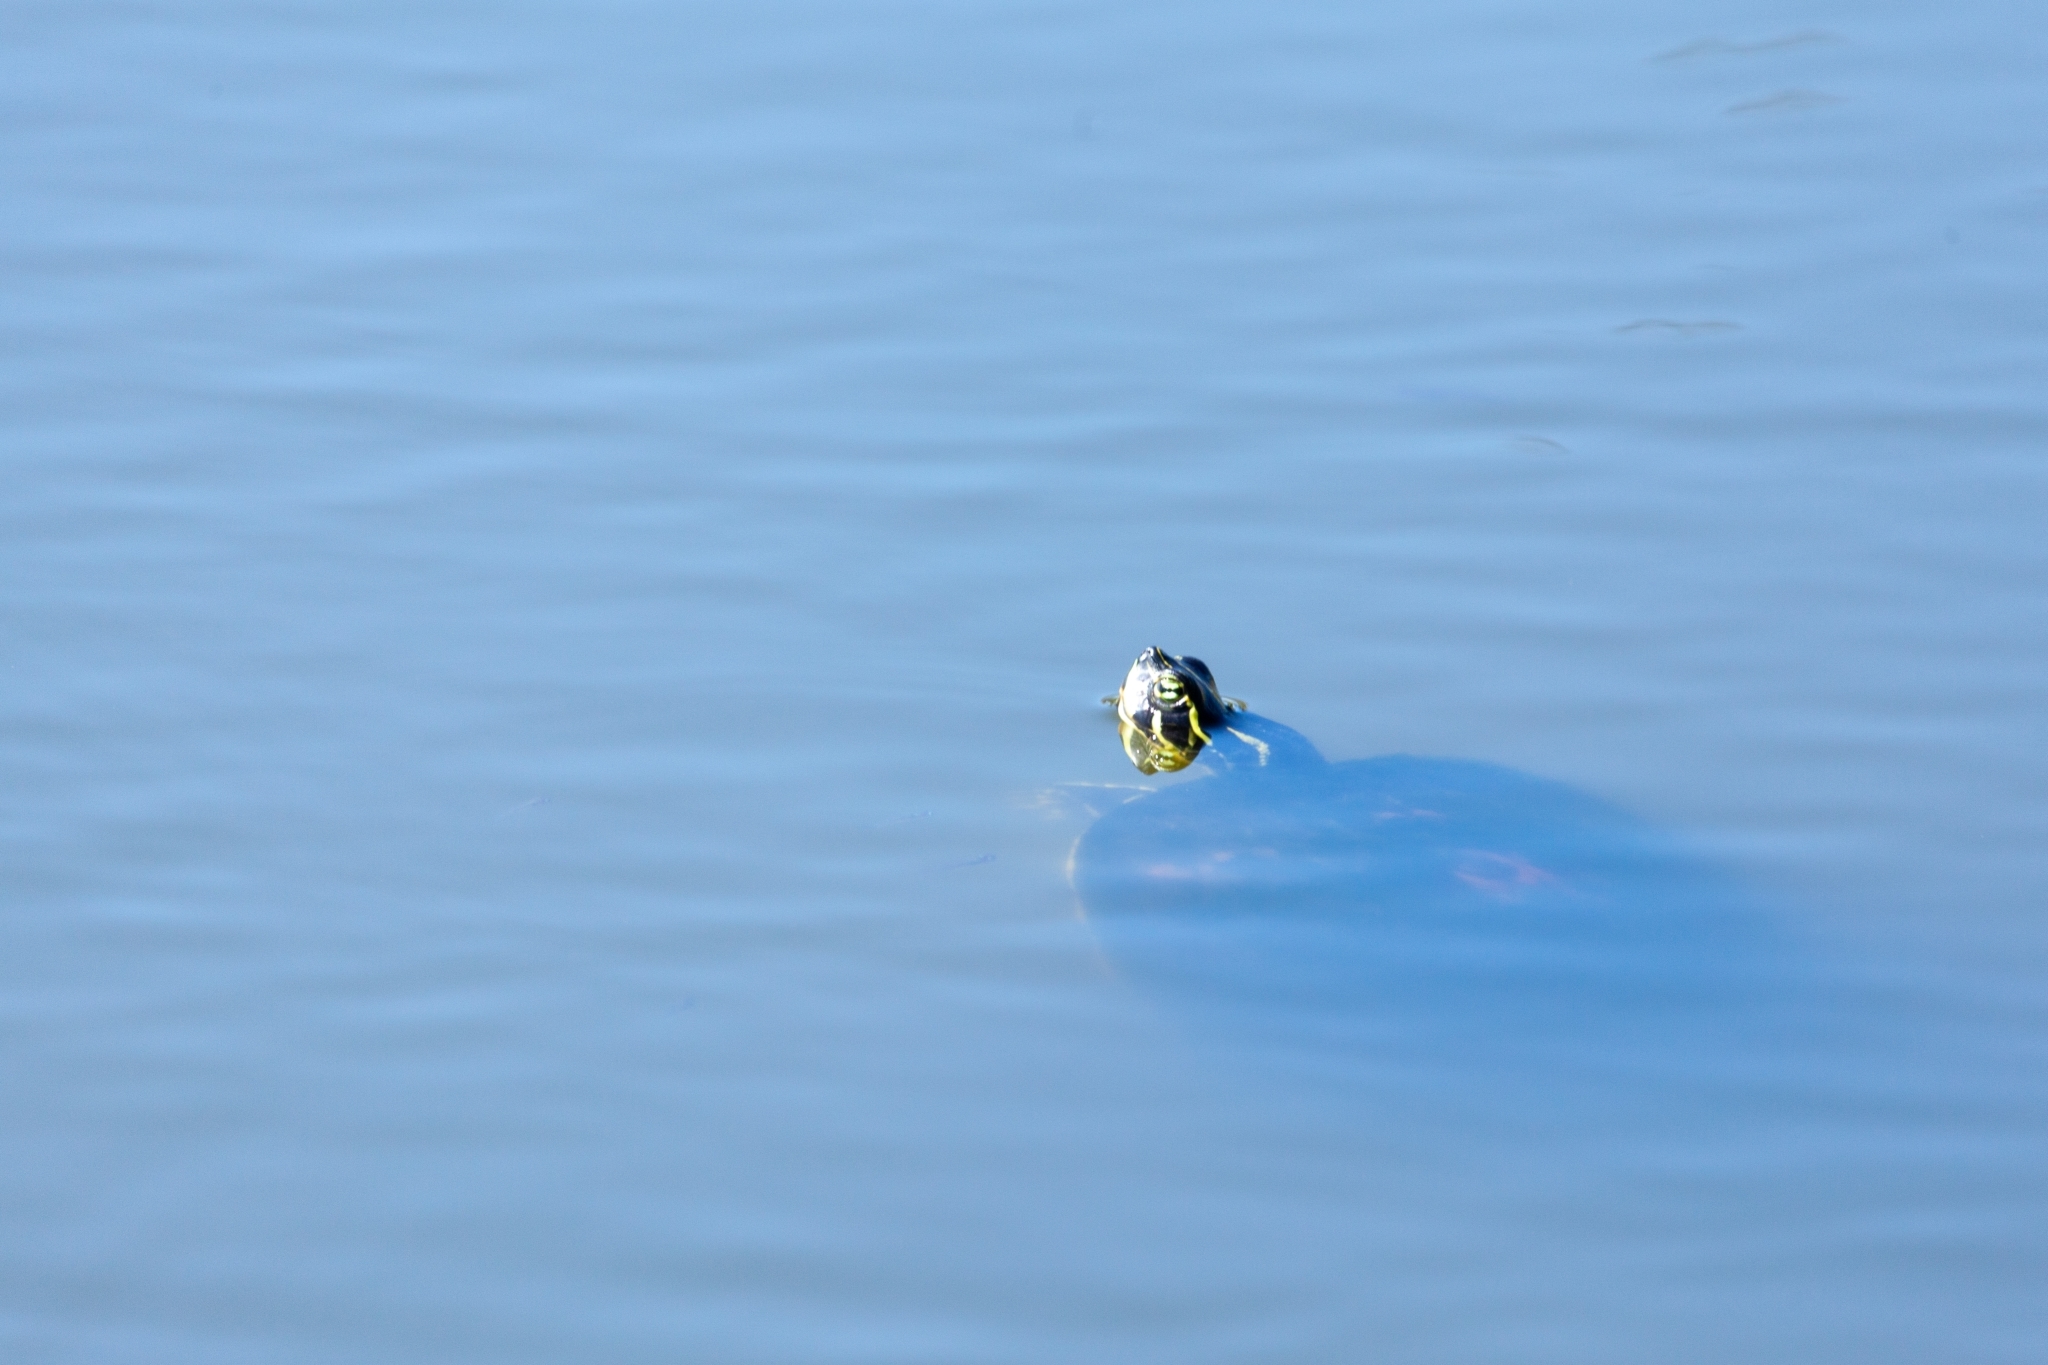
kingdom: Animalia
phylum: Chordata
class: Testudines
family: Emydidae
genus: Pseudemys
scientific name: Pseudemys nelsoni
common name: Florida red-bellied turtle
